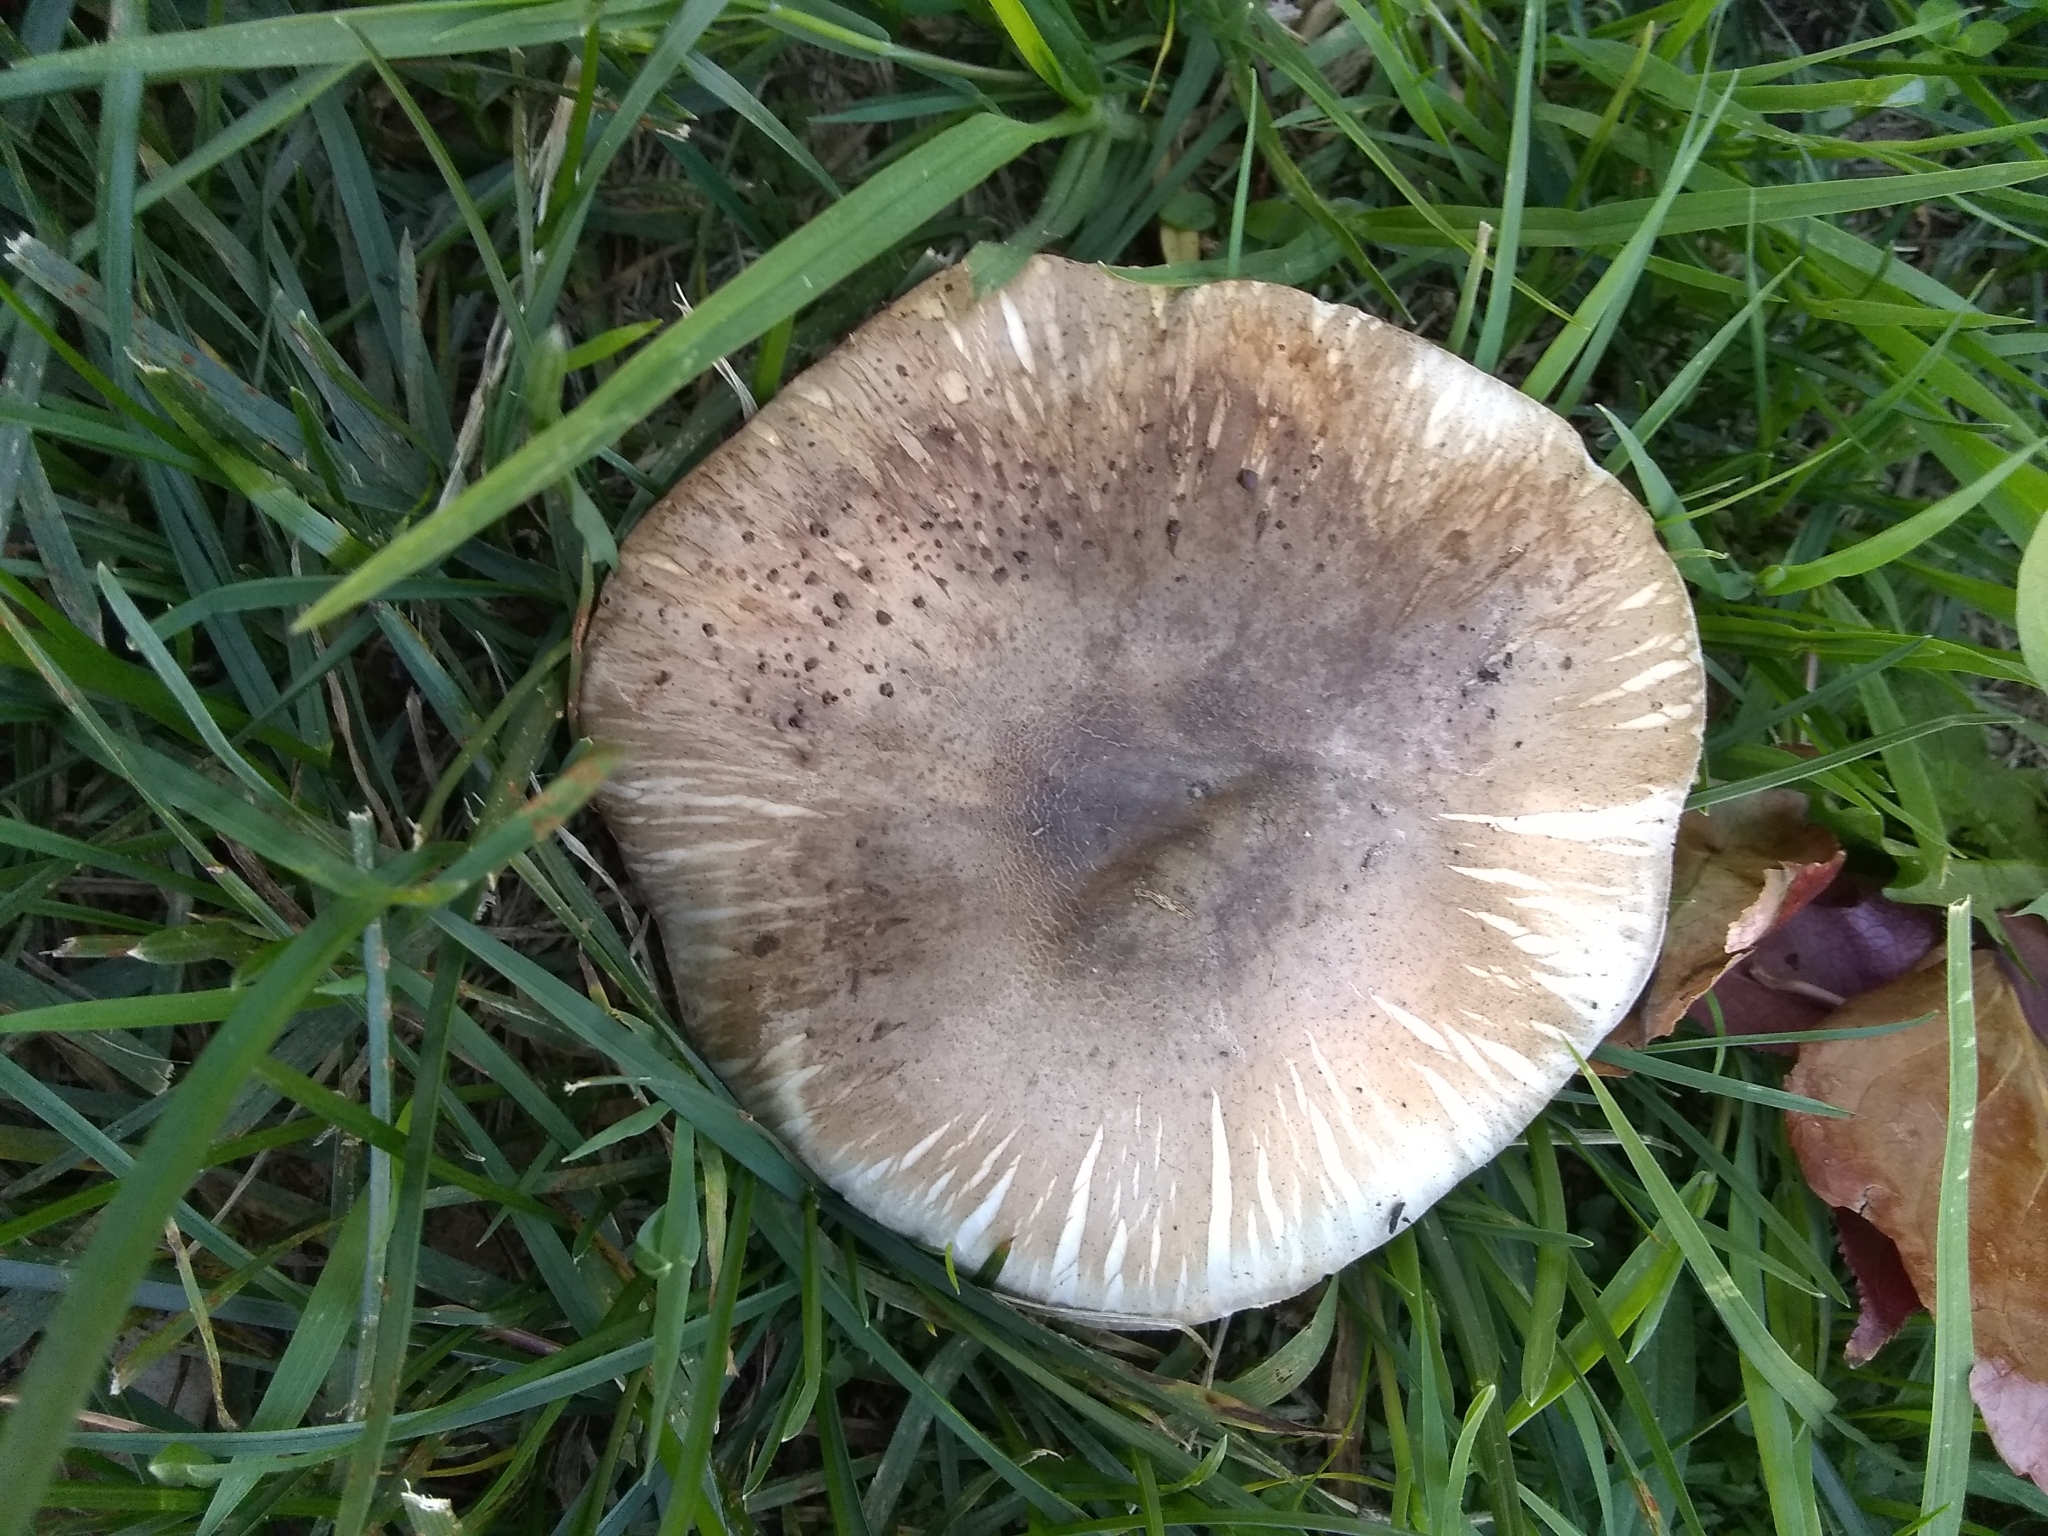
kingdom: Fungi
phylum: Basidiomycota
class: Agaricomycetes
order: Agaricales
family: Agaricaceae
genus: Agaricus
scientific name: Agaricus xanthodermus
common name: Yellow stainer
